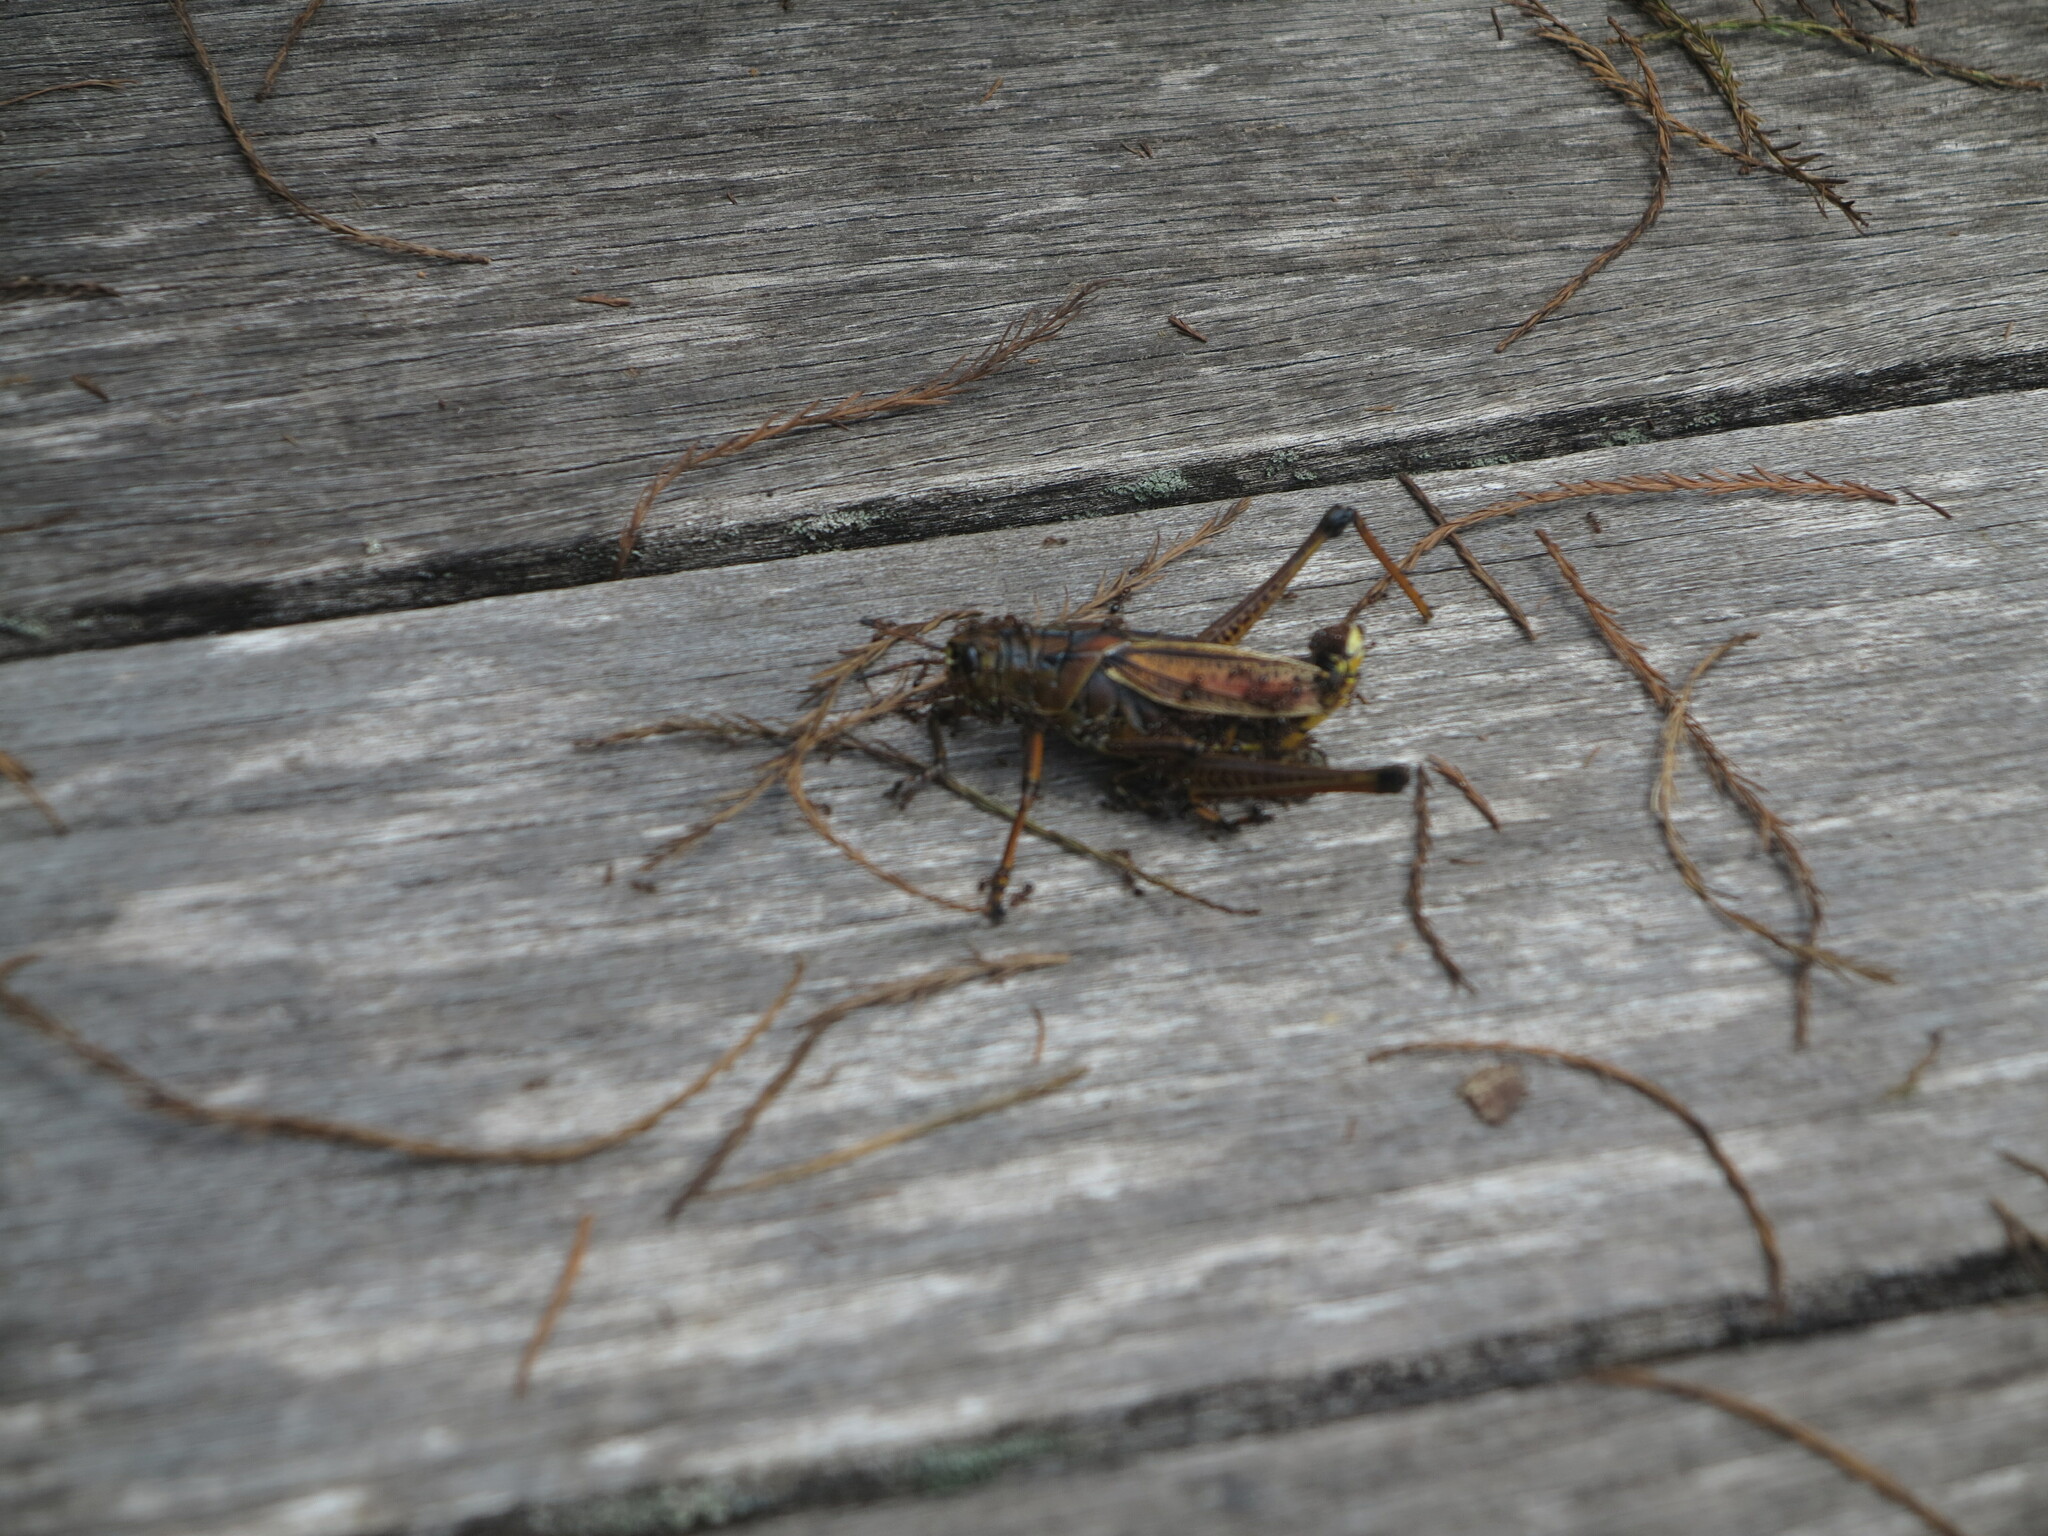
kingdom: Animalia
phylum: Arthropoda
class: Insecta
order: Orthoptera
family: Romaleidae
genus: Romalea
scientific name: Romalea microptera
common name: Eastern lubber grasshopper
